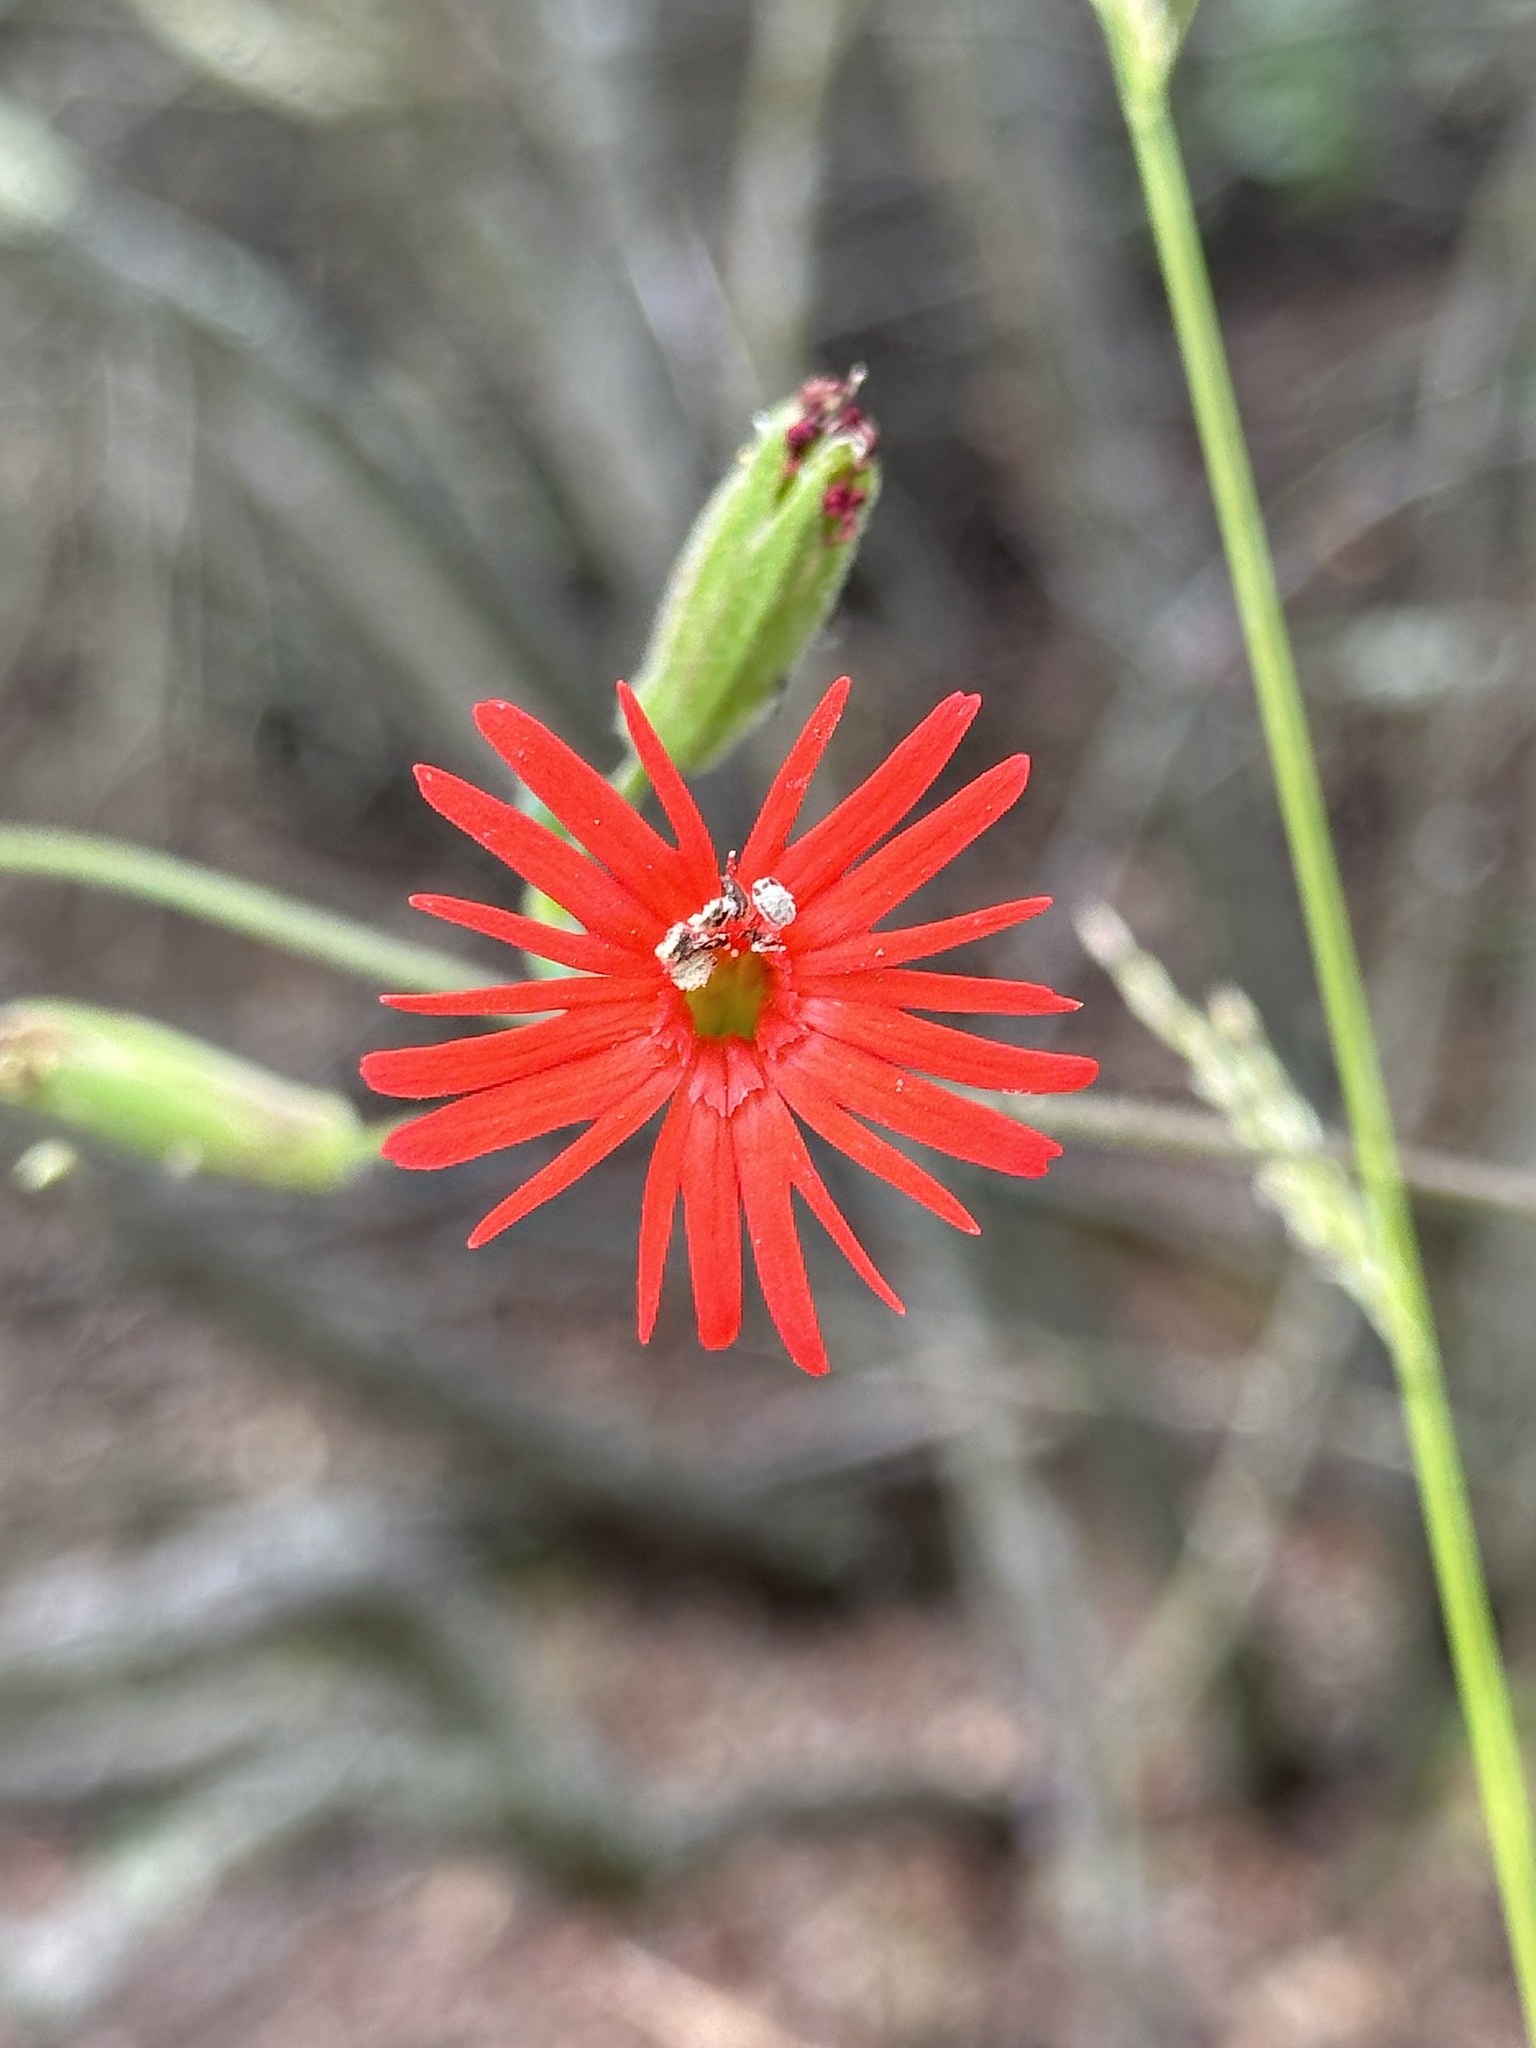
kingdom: Plantae
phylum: Tracheophyta
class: Magnoliopsida
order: Caryophyllales
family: Caryophyllaceae
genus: Silene
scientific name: Silene laciniata
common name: Indian-pink
